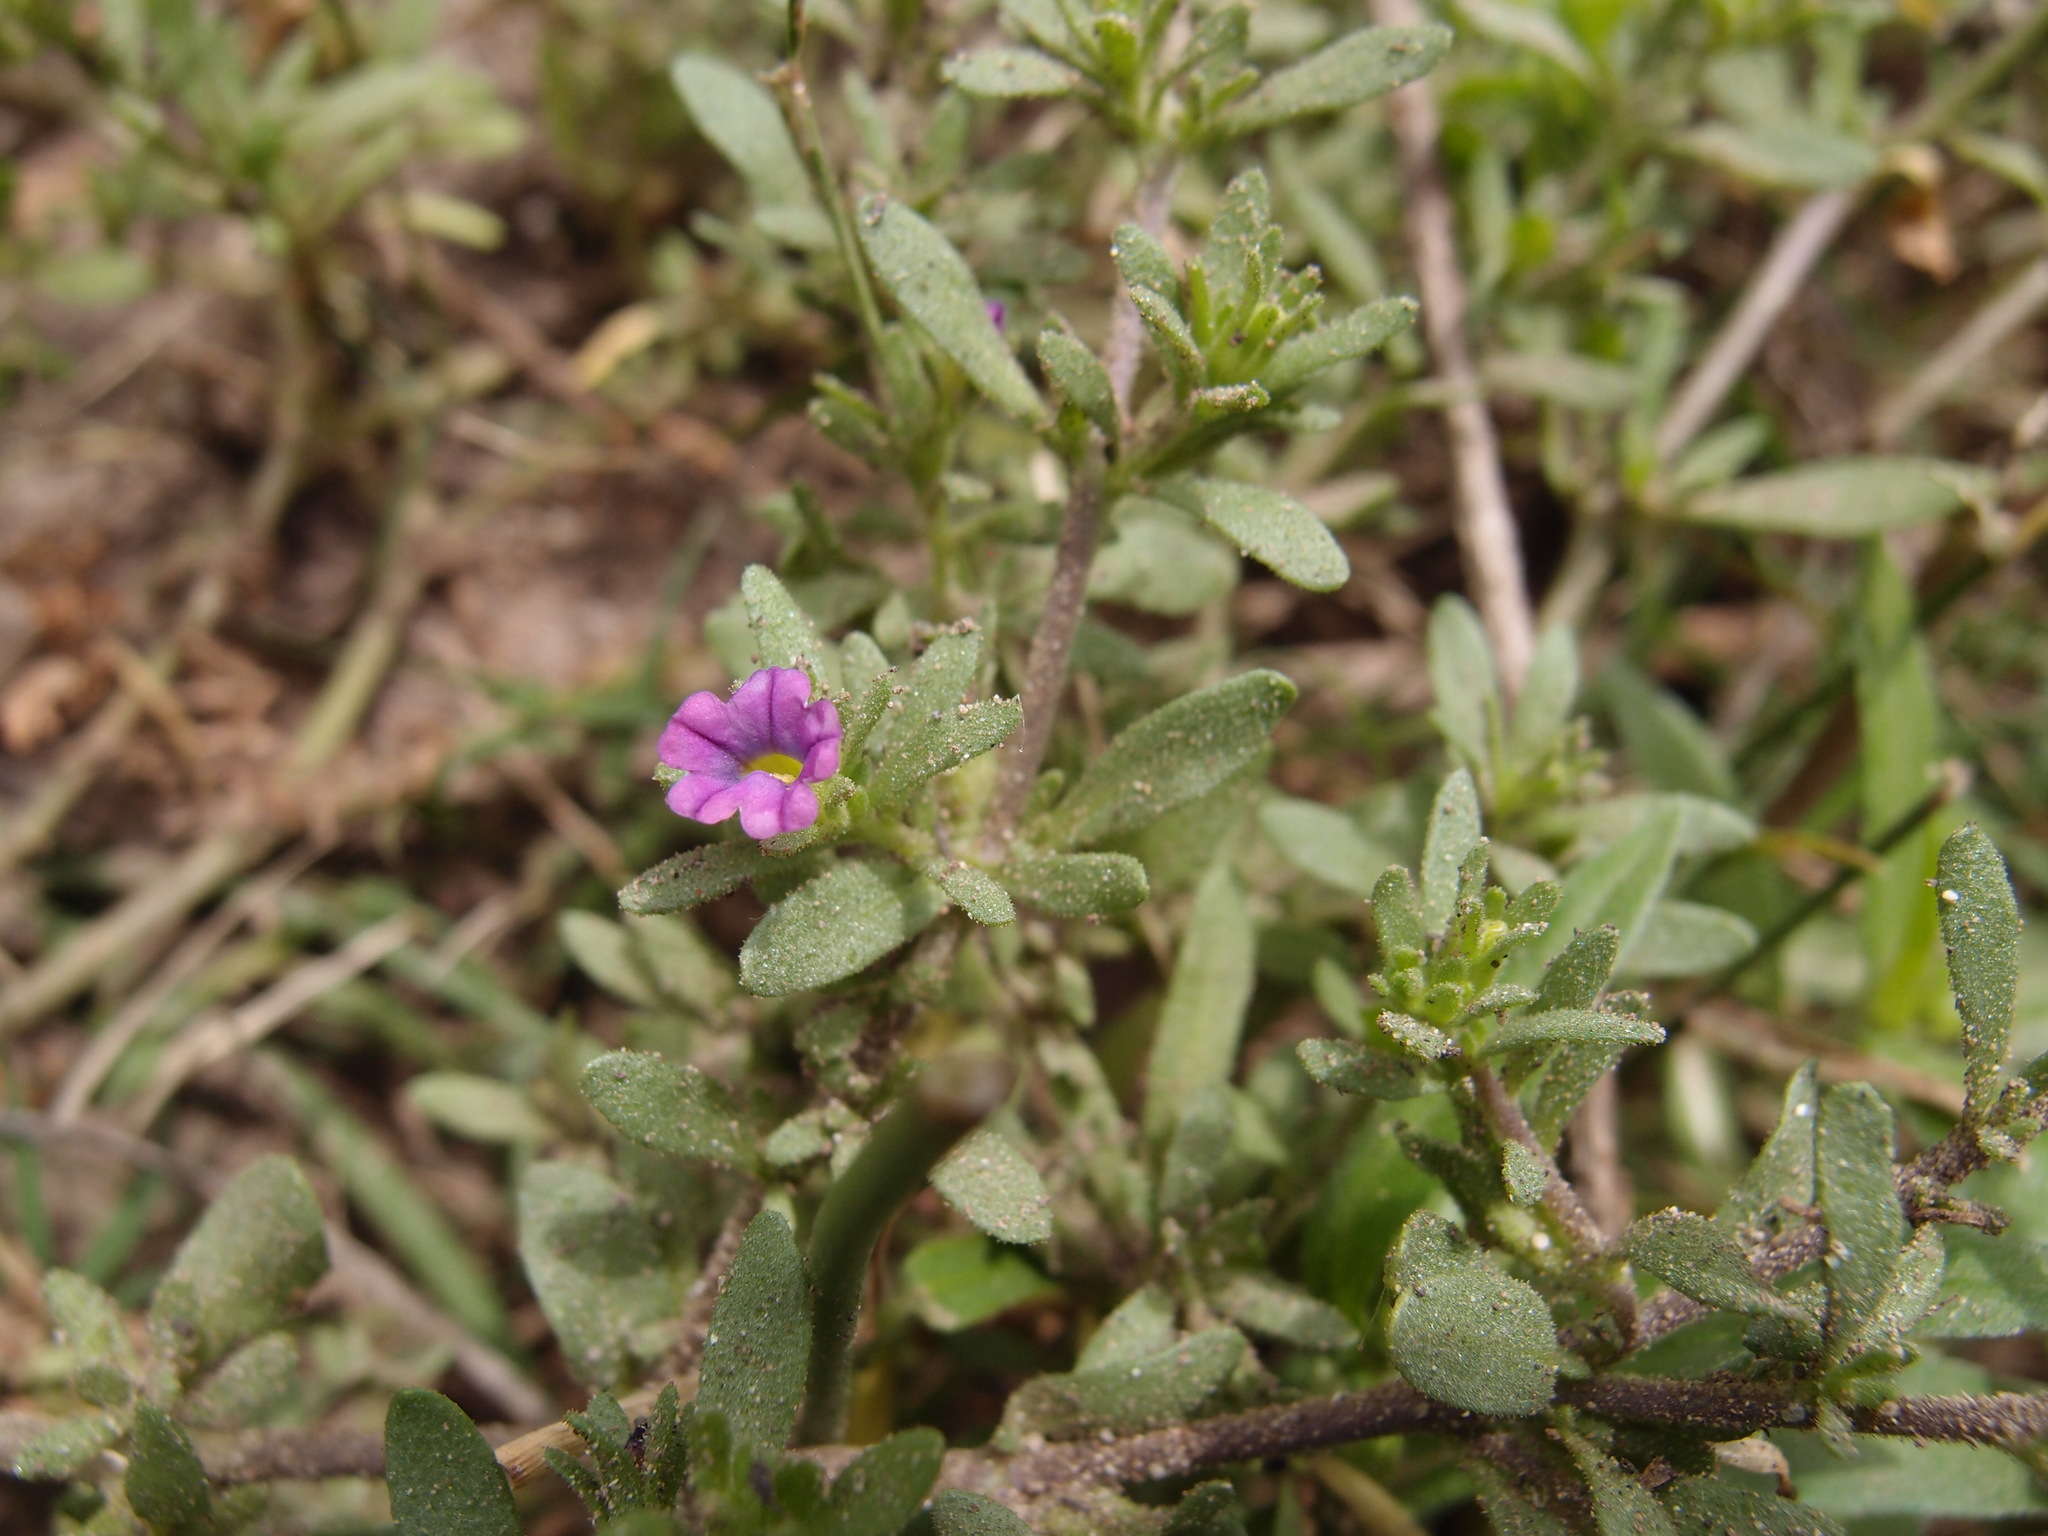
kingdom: Plantae
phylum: Tracheophyta
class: Magnoliopsida
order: Solanales
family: Solanaceae
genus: Calibrachoa
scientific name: Calibrachoa parviflora
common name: Seaside petunia
